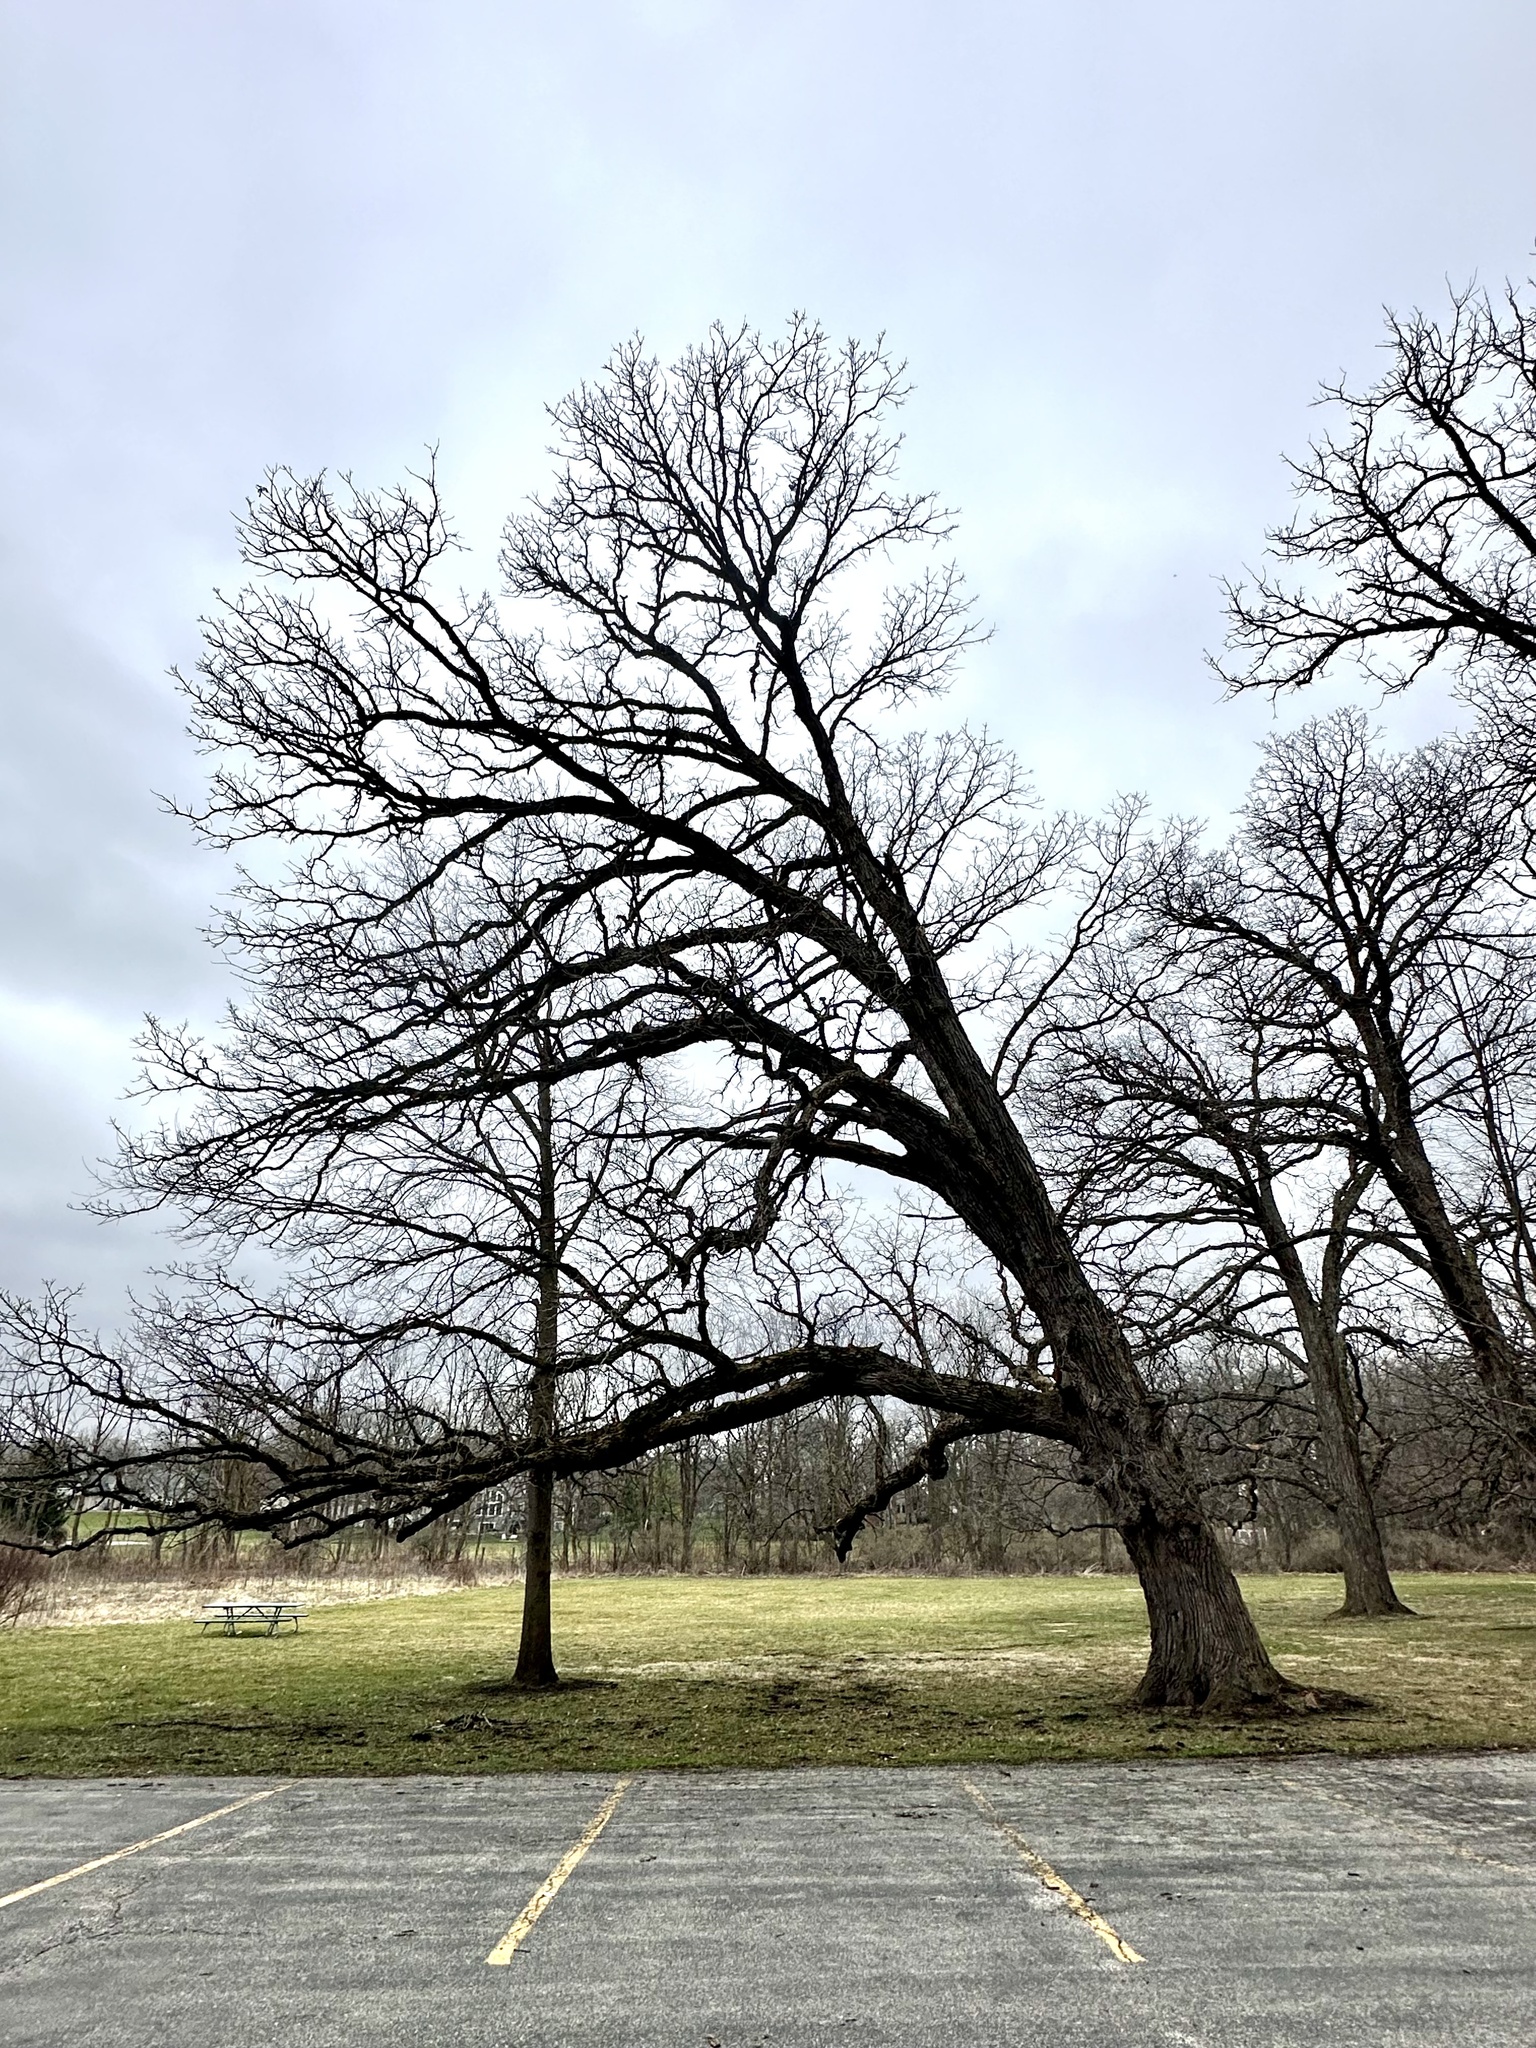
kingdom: Plantae
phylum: Tracheophyta
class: Magnoliopsida
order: Fagales
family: Fagaceae
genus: Quercus
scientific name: Quercus macrocarpa
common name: Bur oak
